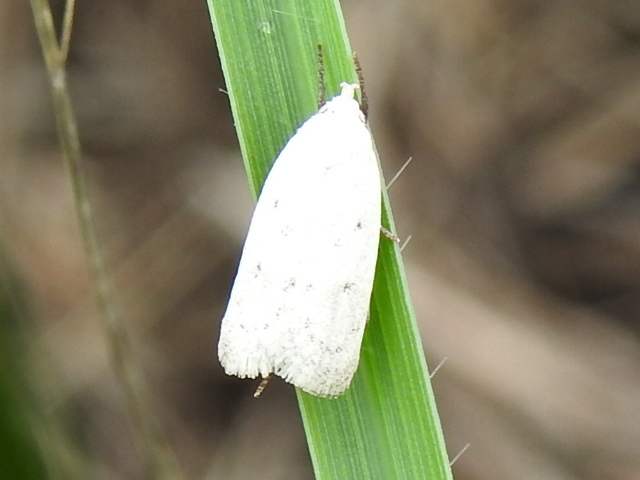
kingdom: Animalia
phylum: Arthropoda
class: Insecta
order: Lepidoptera
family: Oecophoridae
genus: Inga
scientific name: Inga cretacea
